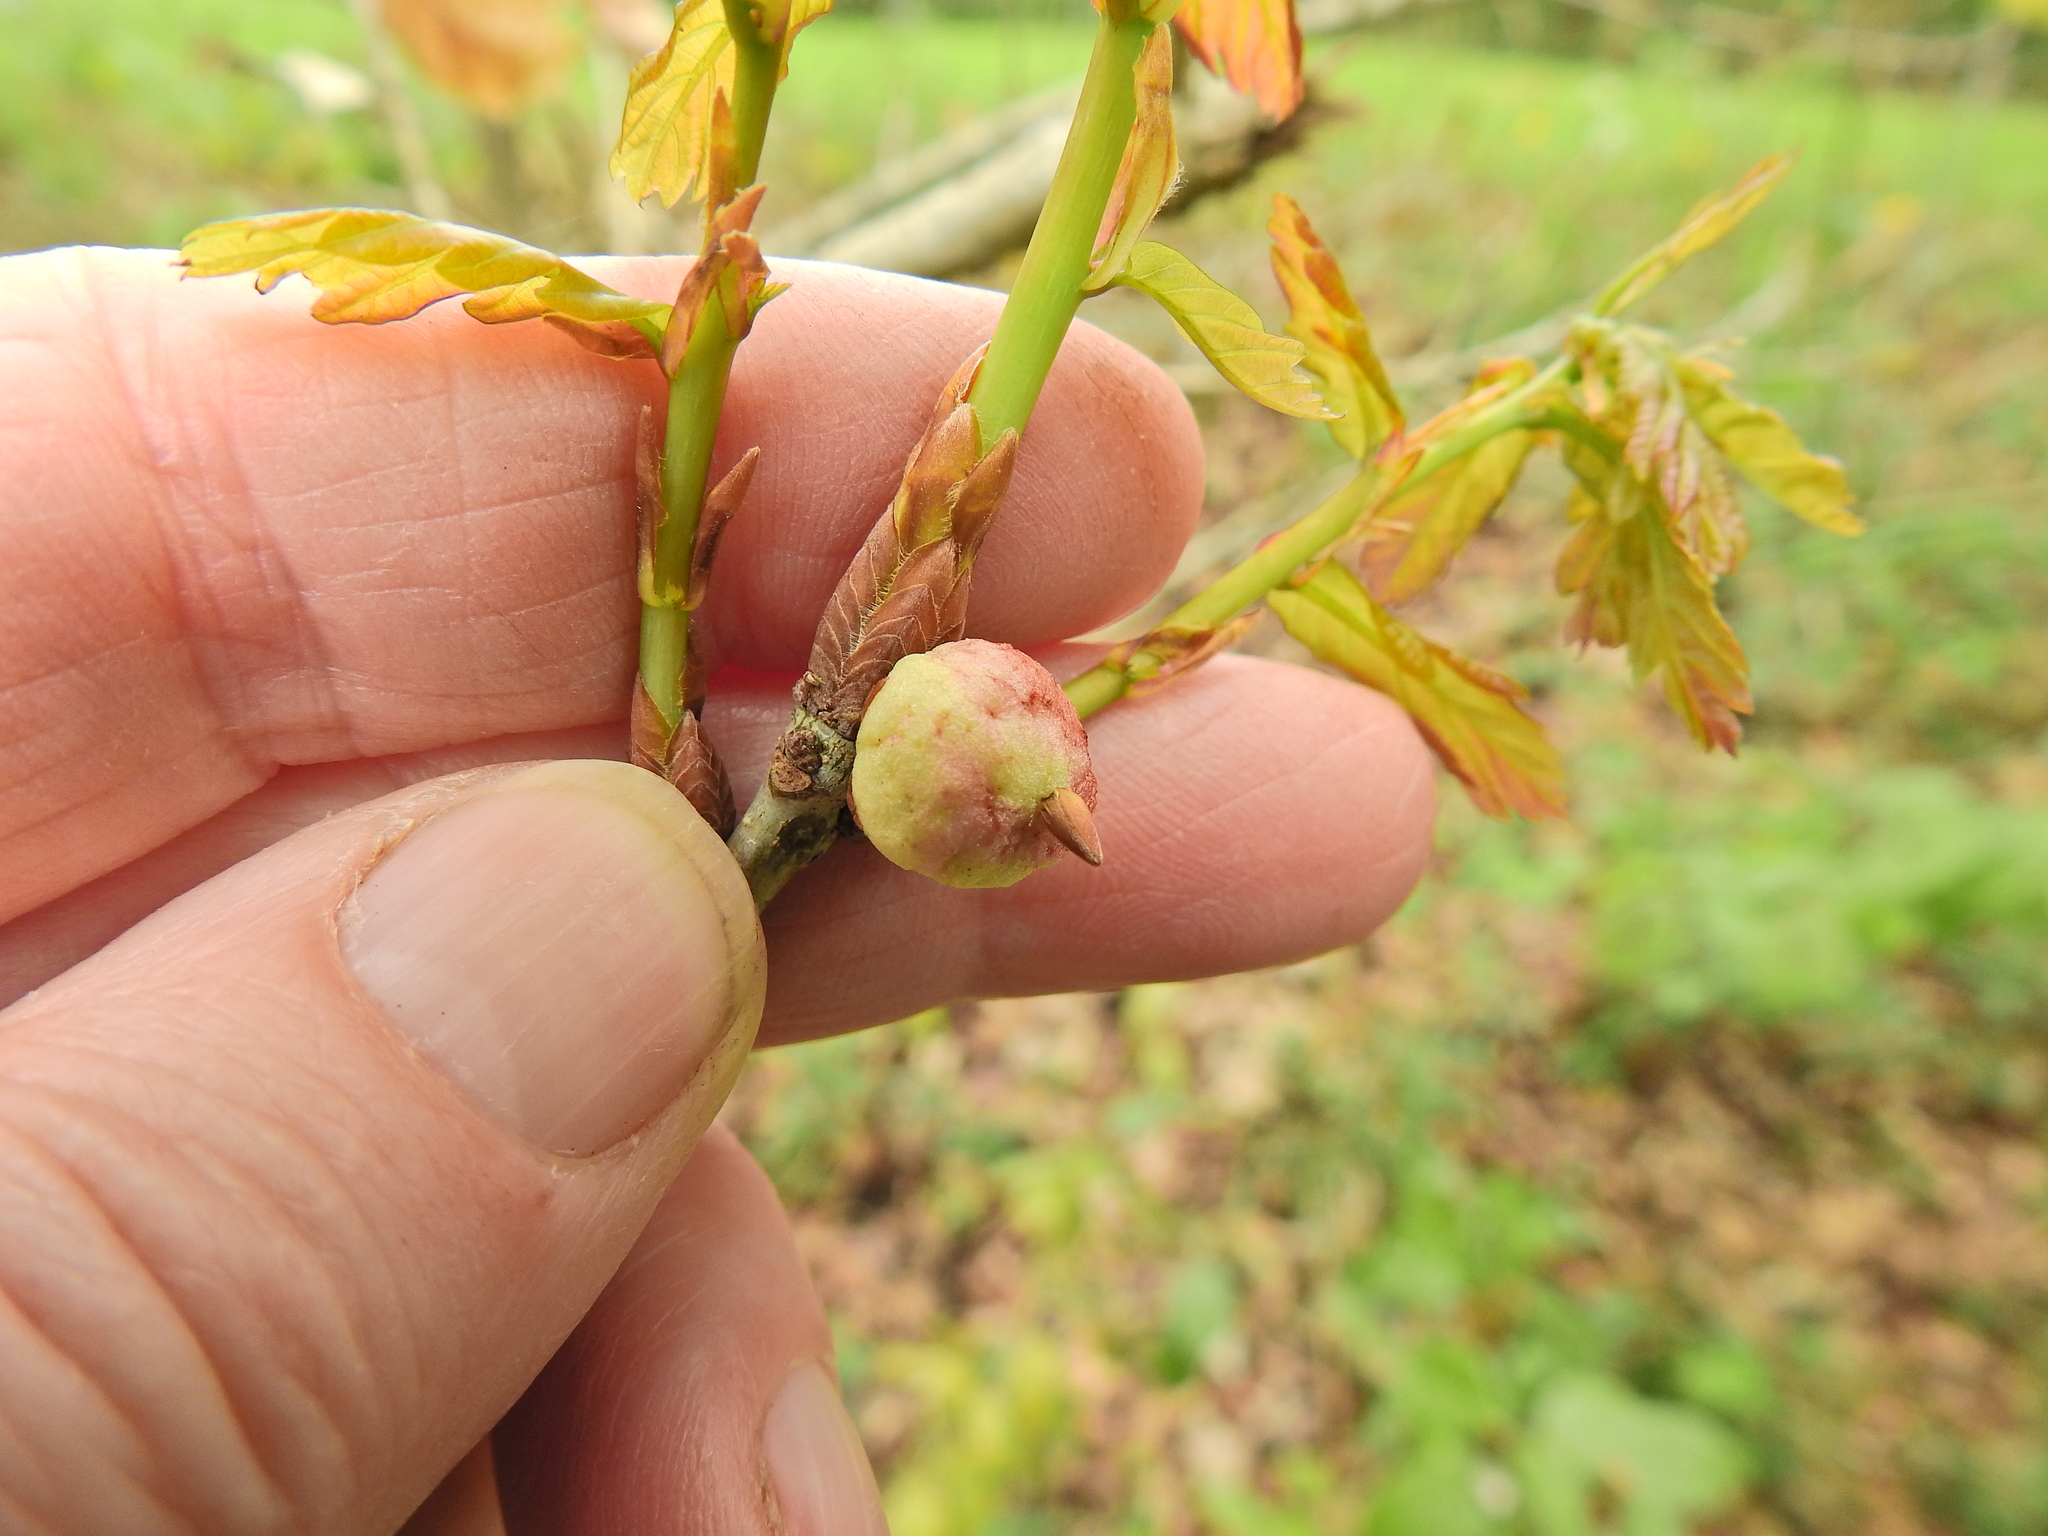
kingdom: Animalia
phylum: Arthropoda
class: Insecta
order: Hymenoptera
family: Cynipidae
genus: Biorhiza
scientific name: Biorhiza pallida
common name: Oak apple
